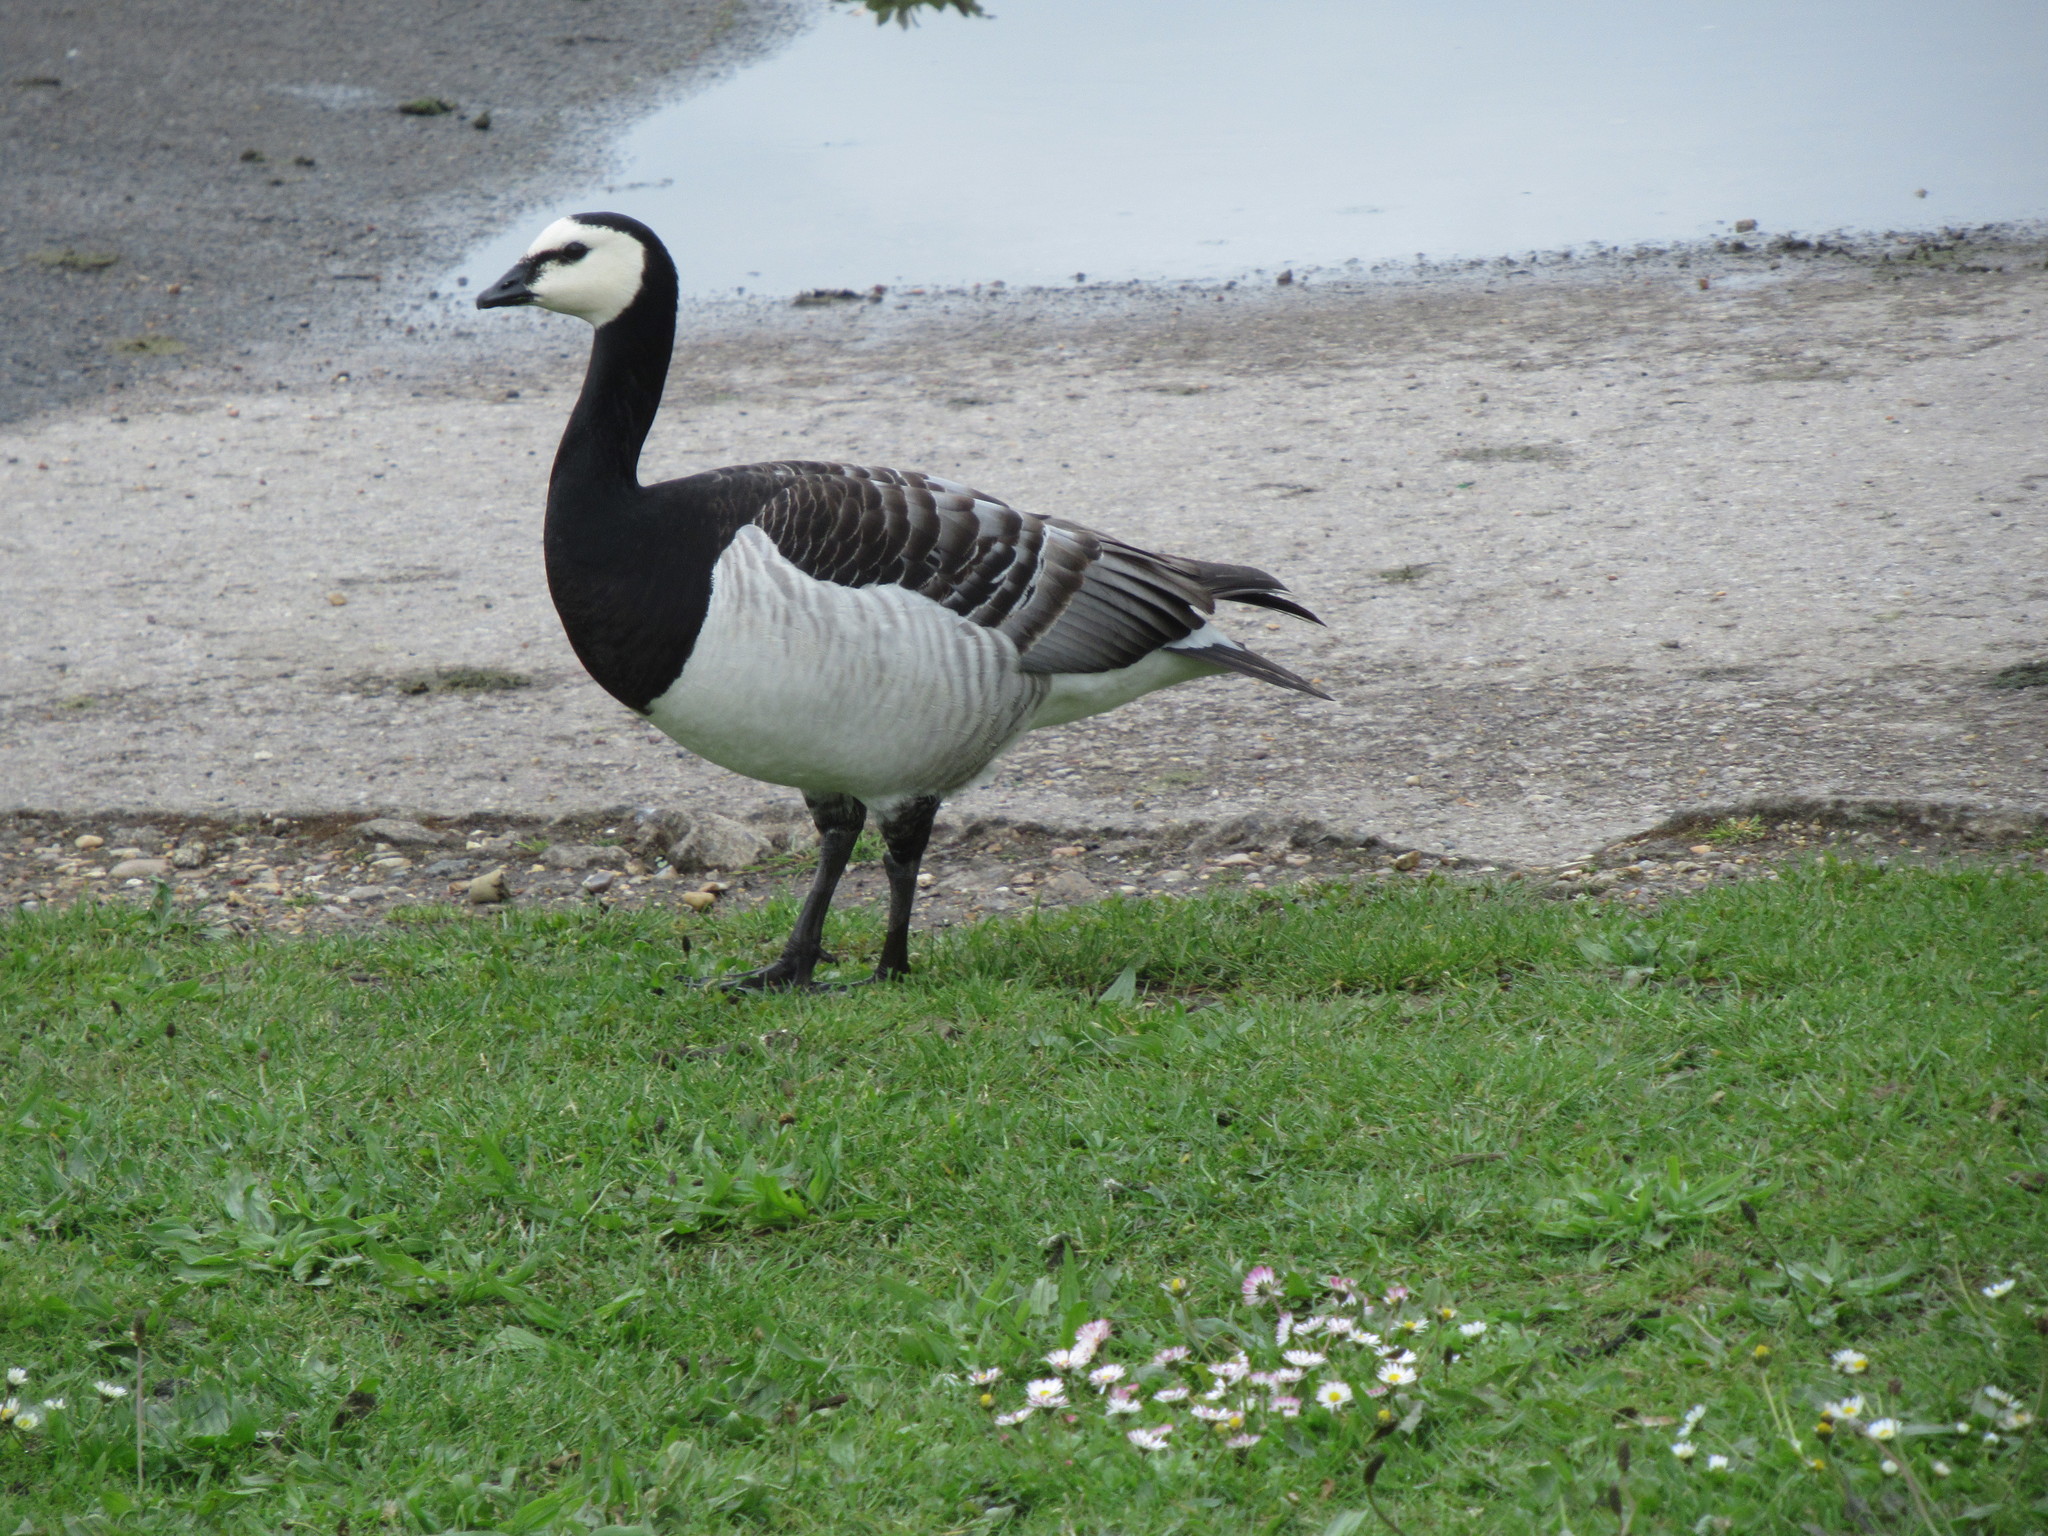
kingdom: Animalia
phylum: Chordata
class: Aves
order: Anseriformes
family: Anatidae
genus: Branta
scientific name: Branta leucopsis
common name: Barnacle goose
